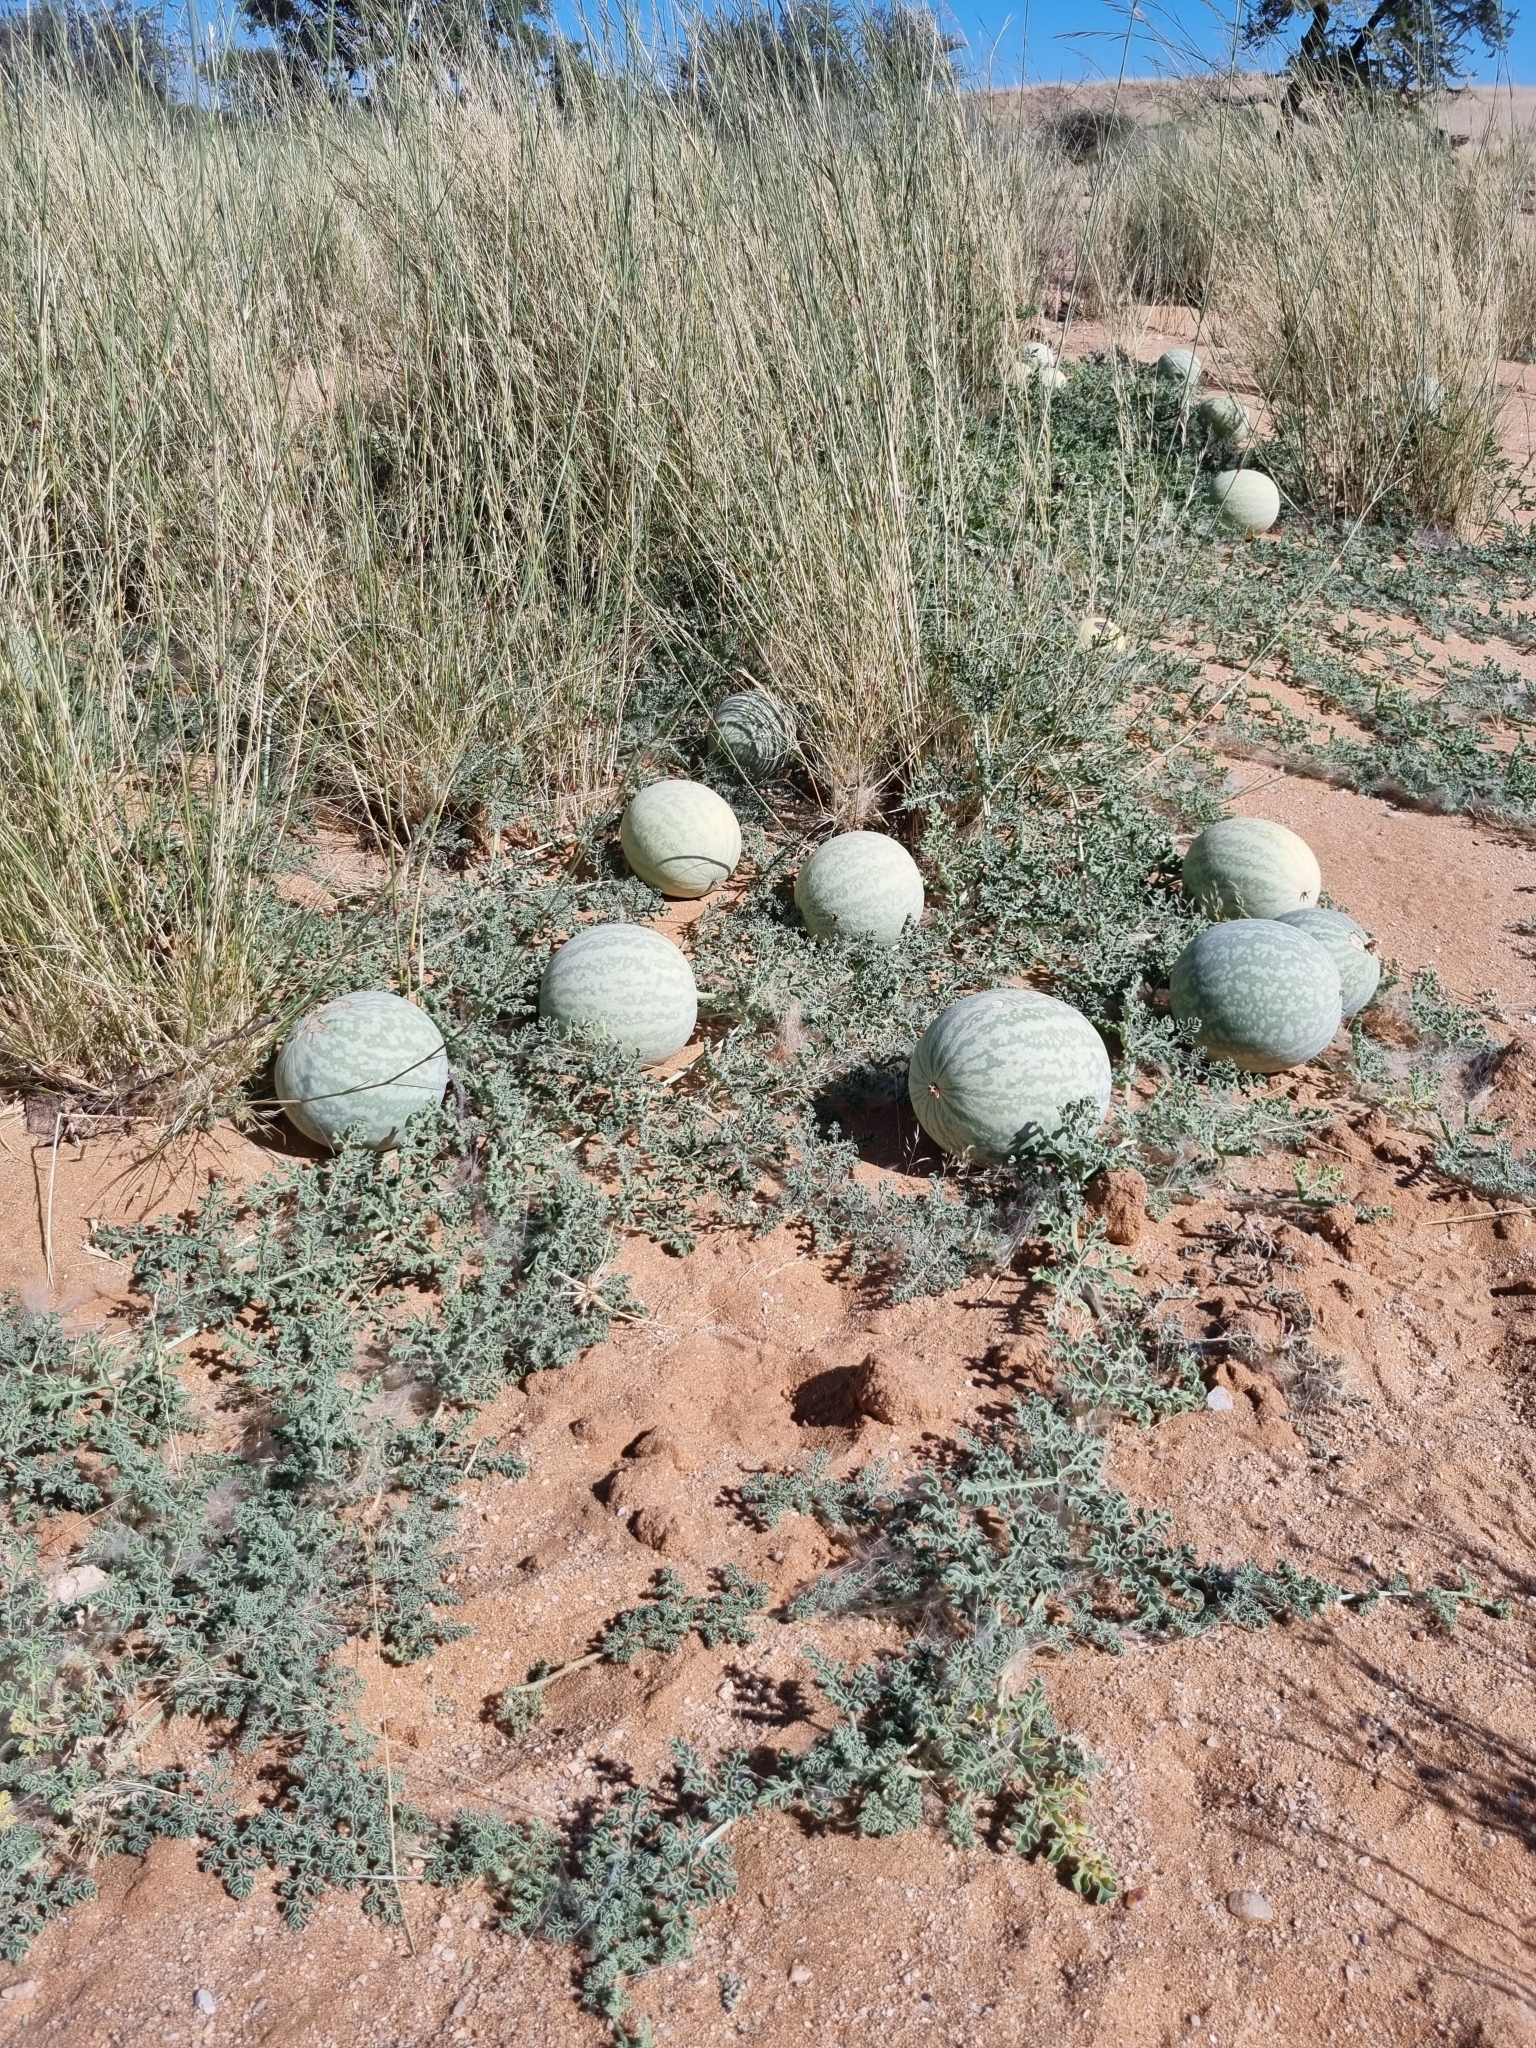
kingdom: Plantae
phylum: Tracheophyta
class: Magnoliopsida
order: Cucurbitales
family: Cucurbitaceae
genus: Citrullus
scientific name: Citrullus ecirrhosus
